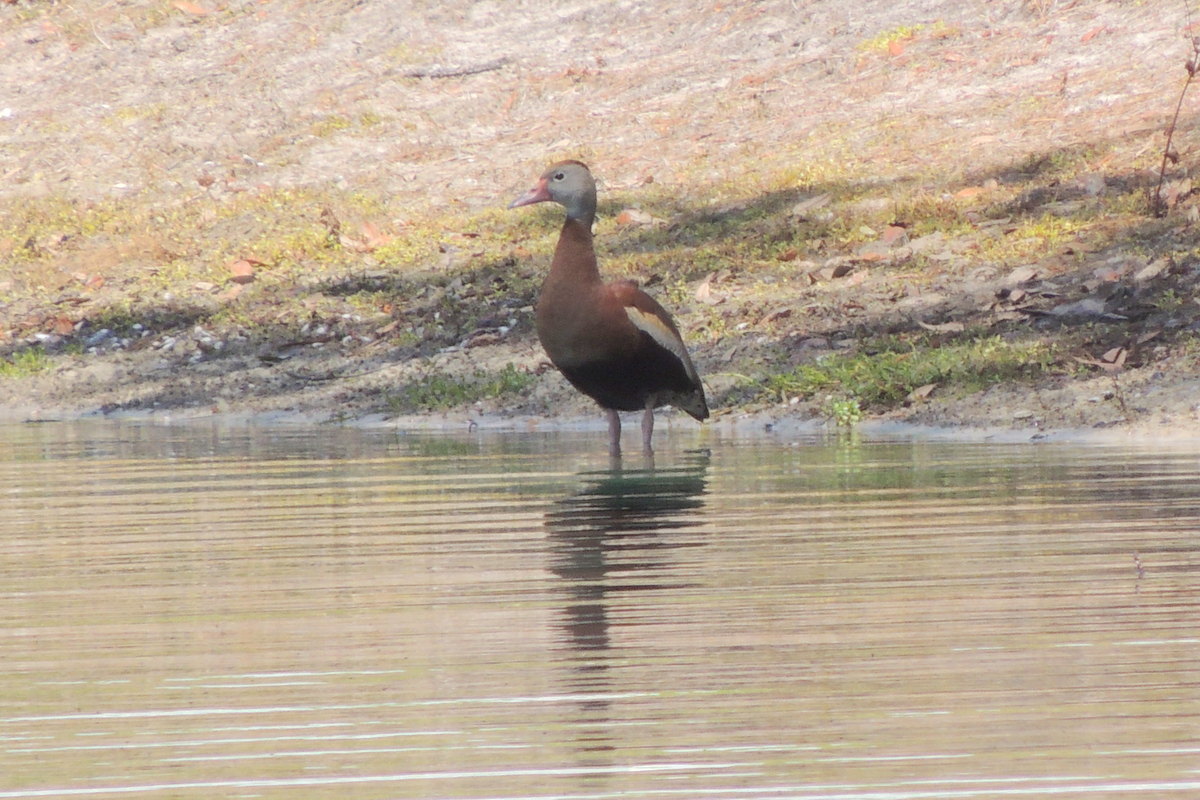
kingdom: Animalia
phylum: Chordata
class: Aves
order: Anseriformes
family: Anatidae
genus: Dendrocygna
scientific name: Dendrocygna autumnalis
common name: Black-bellied whistling duck
